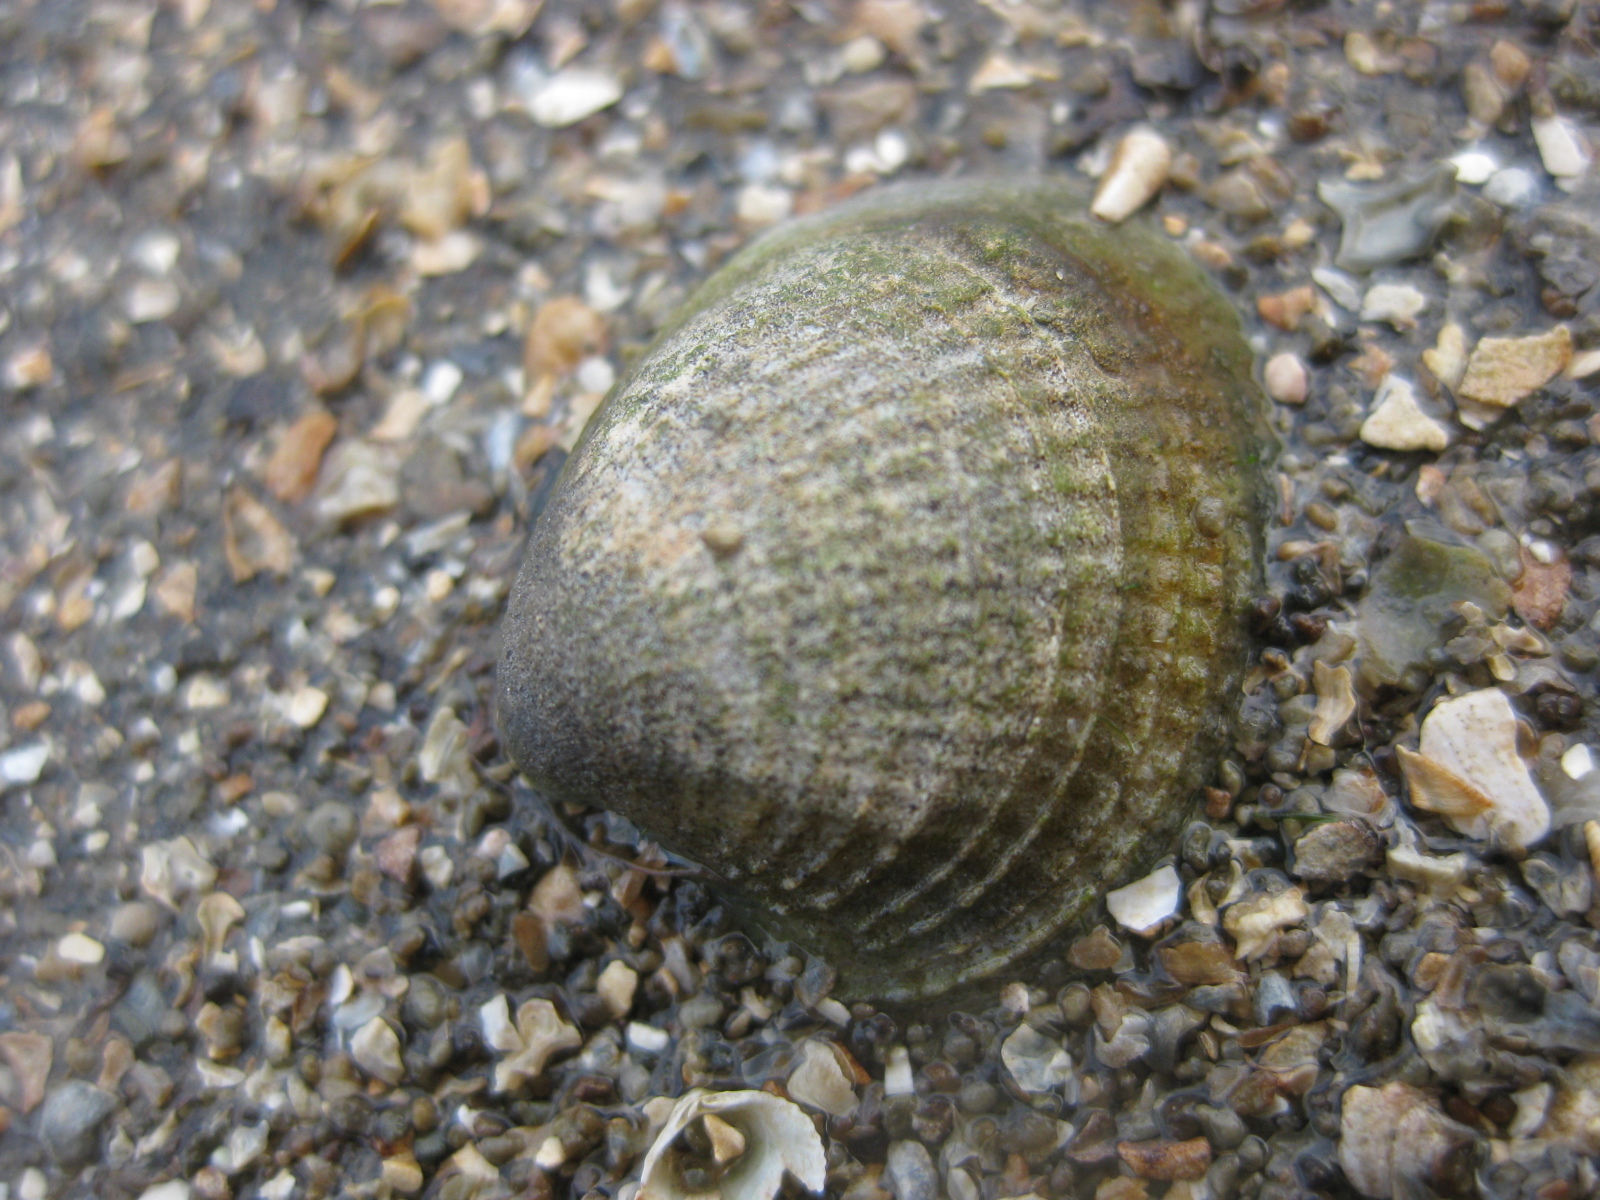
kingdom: Animalia
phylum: Mollusca
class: Bivalvia
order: Venerida
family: Veneridae
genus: Austrovenus
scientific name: Austrovenus stutchburyi
